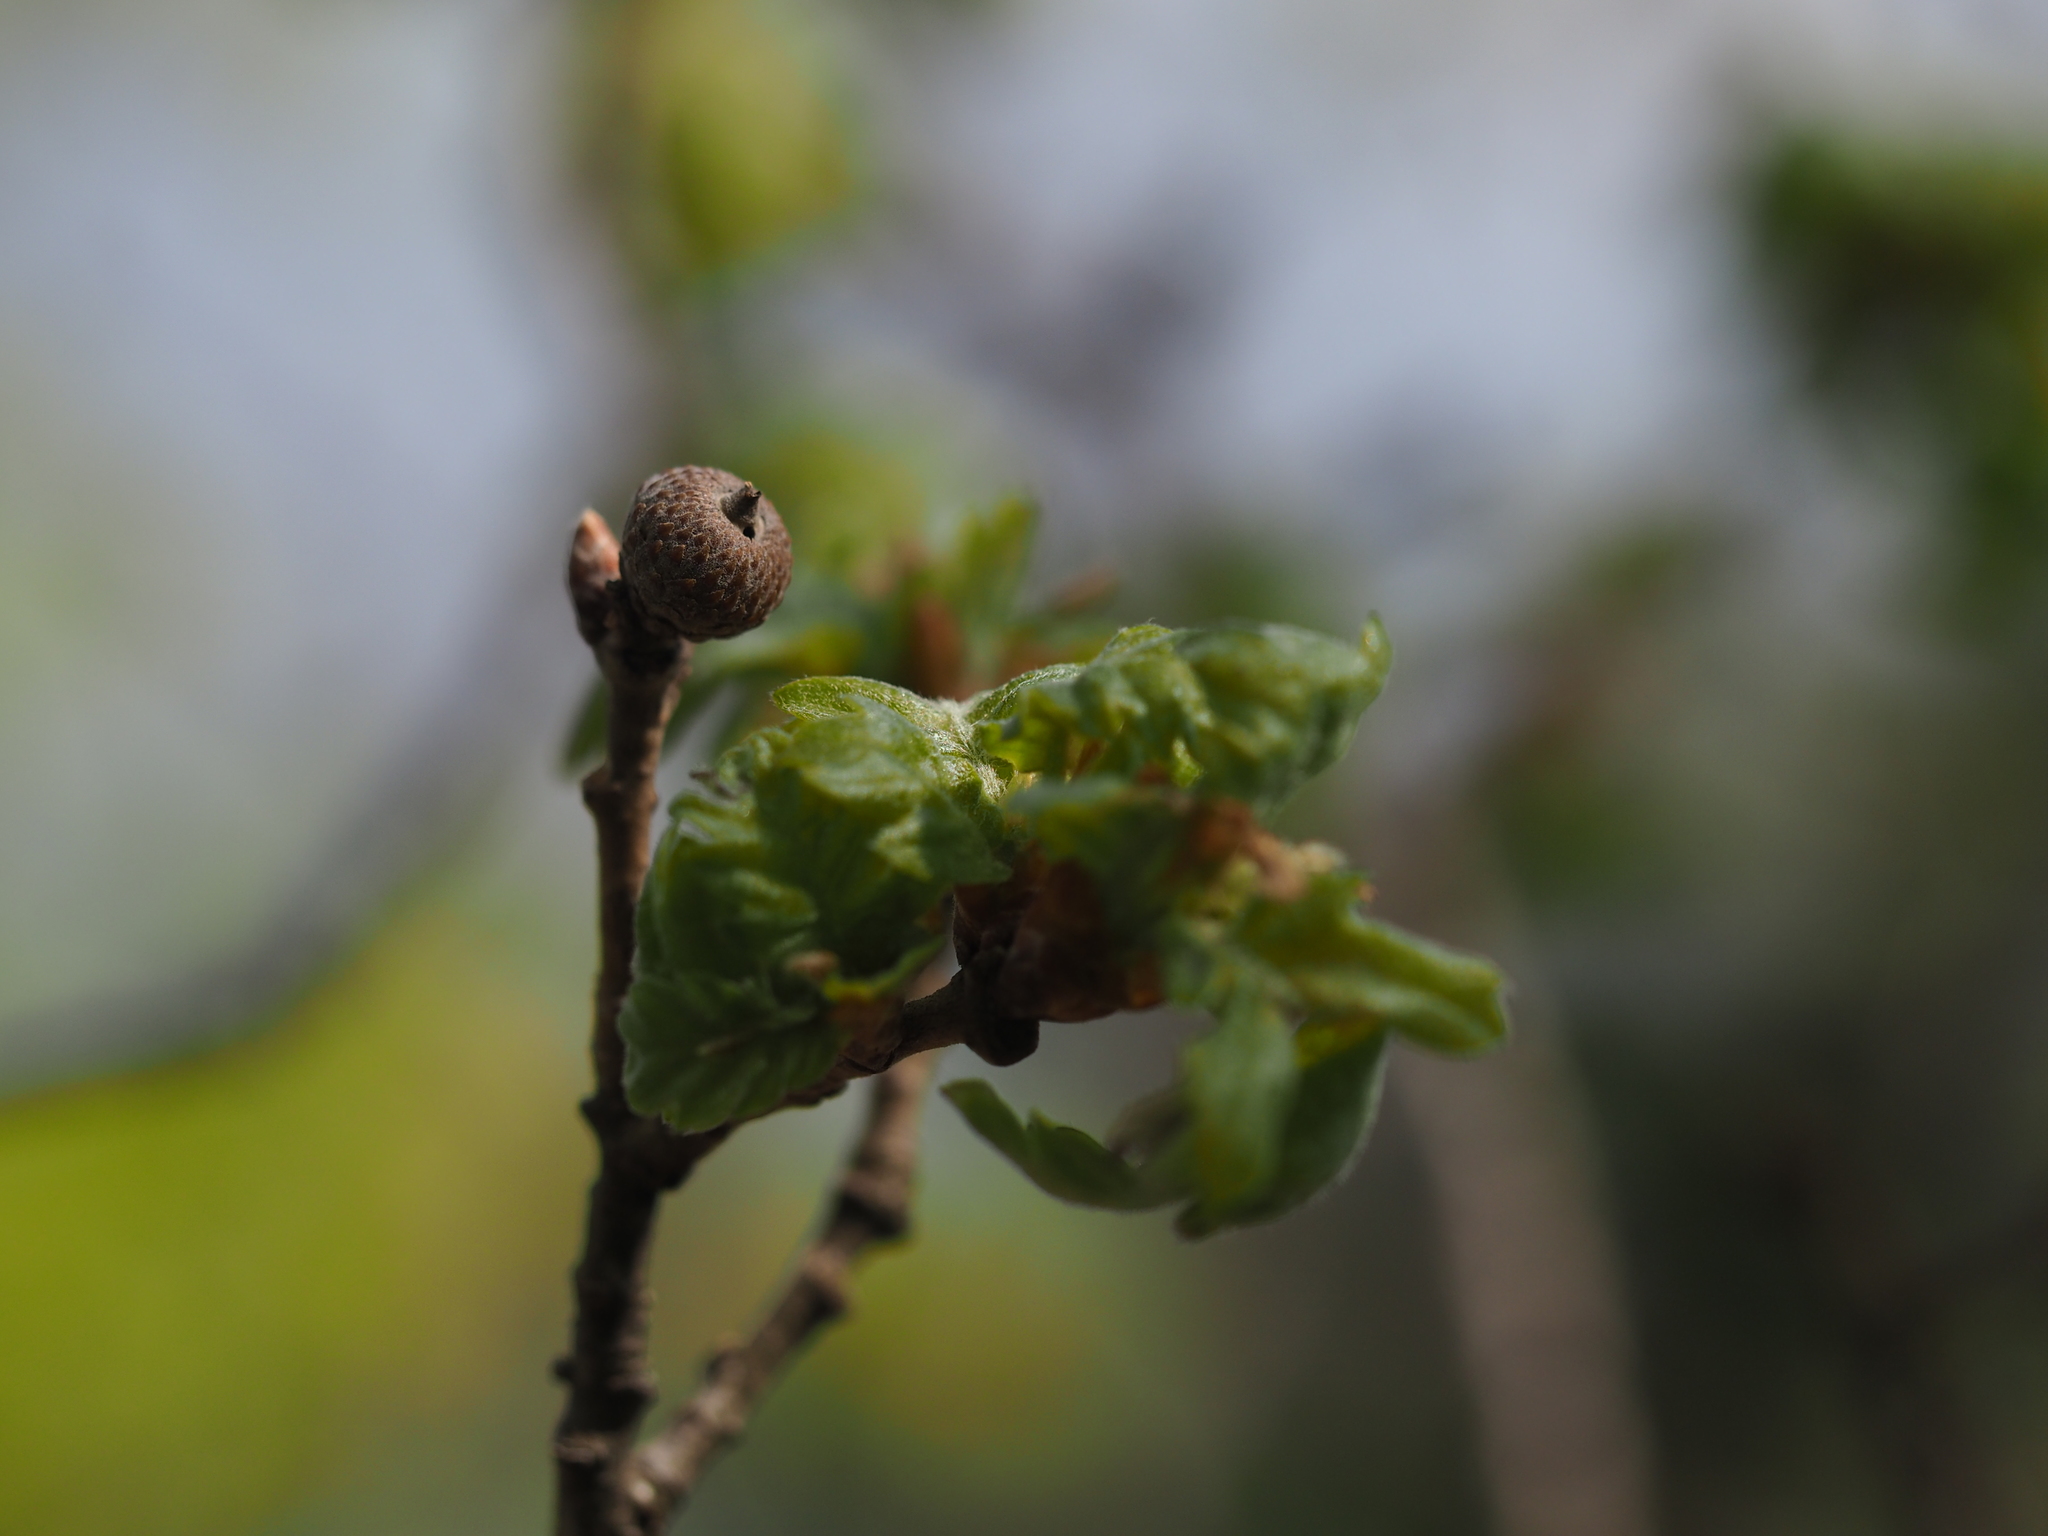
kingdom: Plantae
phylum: Tracheophyta
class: Magnoliopsida
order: Fagales
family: Fagaceae
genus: Quercus
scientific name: Quercus pubescens
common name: Downy oak
